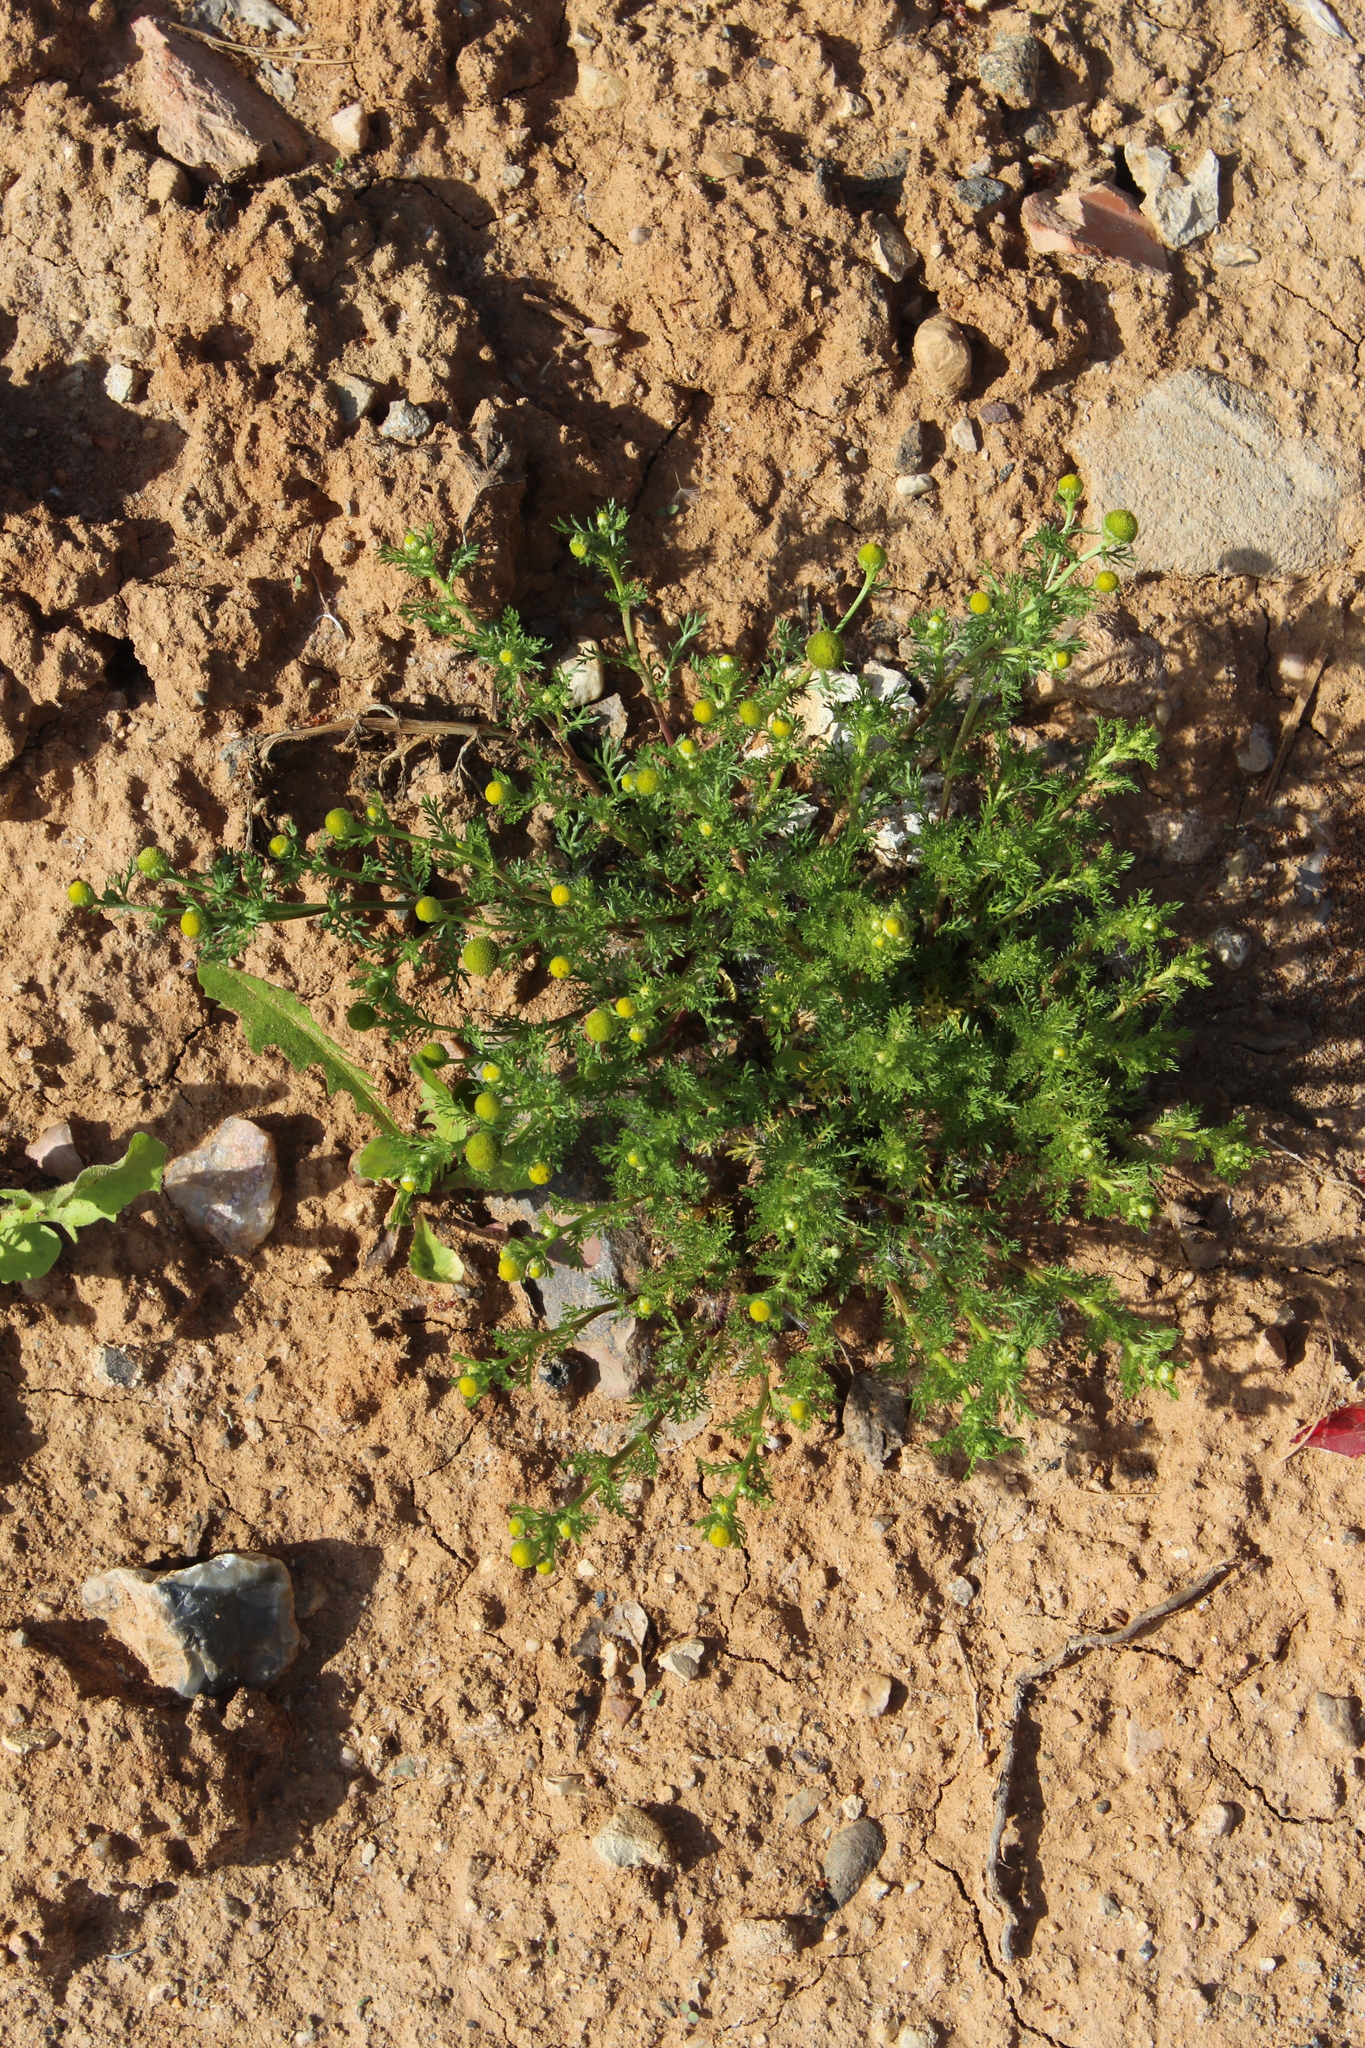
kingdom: Plantae
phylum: Tracheophyta
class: Magnoliopsida
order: Asterales
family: Asteraceae
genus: Matricaria
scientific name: Matricaria discoidea
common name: Disc mayweed
